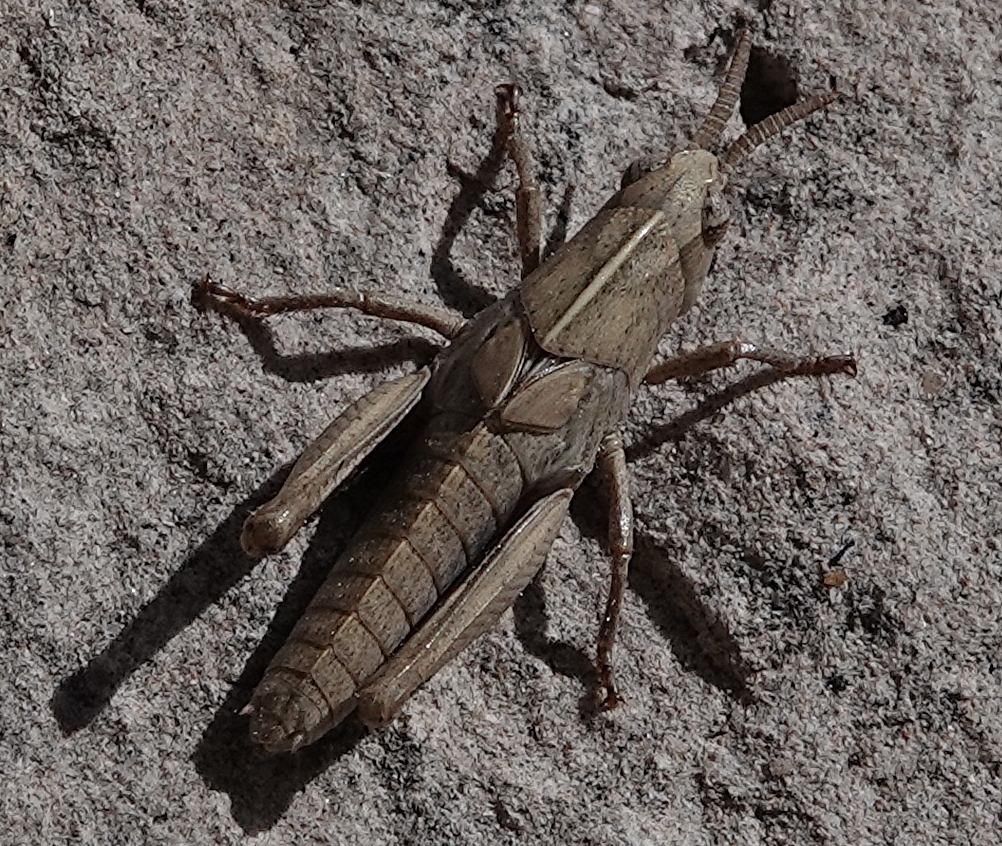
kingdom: Animalia
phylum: Arthropoda
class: Insecta
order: Orthoptera
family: Acrididae
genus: Chortophaga
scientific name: Chortophaga viridifasciata
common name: Green-striped grasshopper
